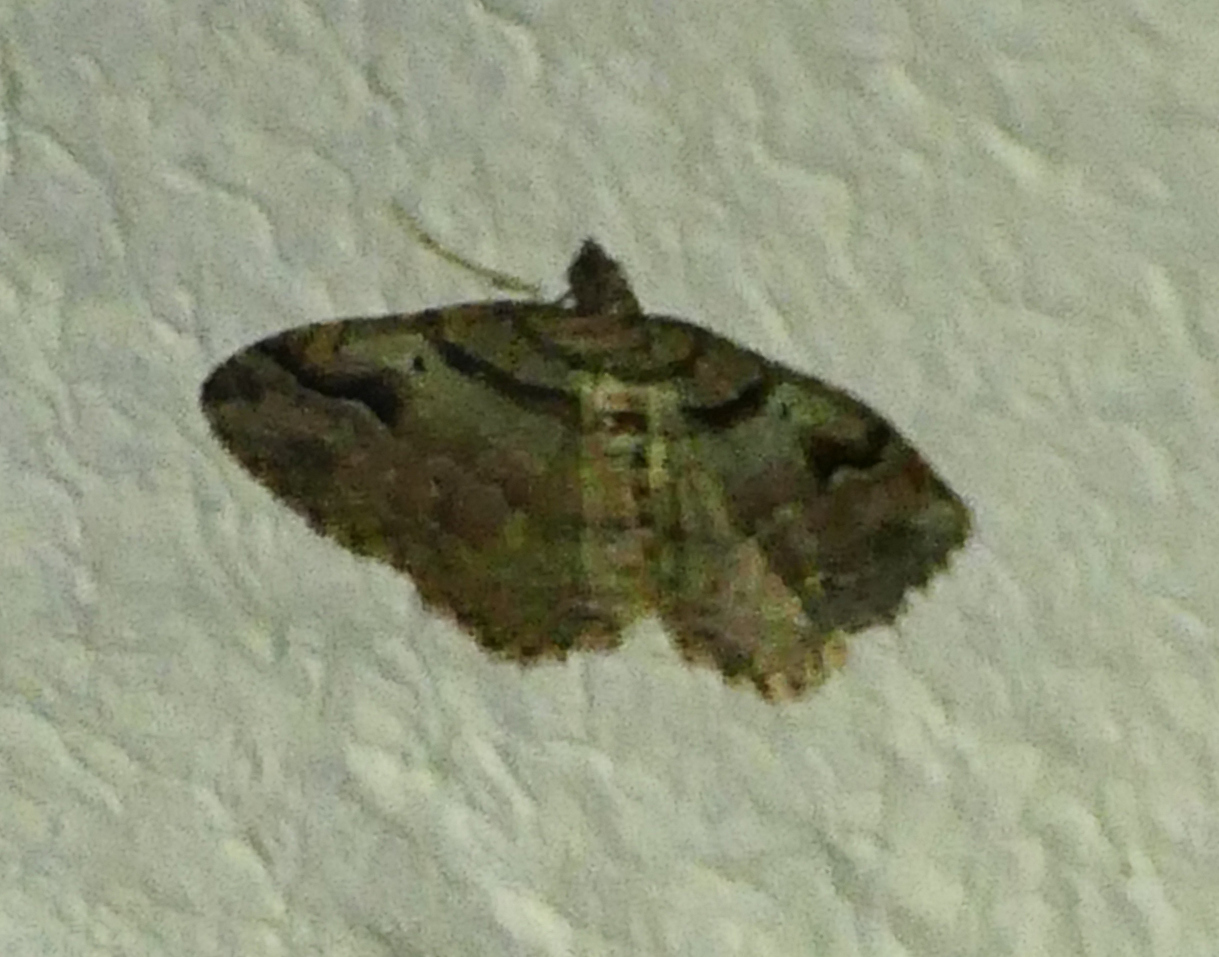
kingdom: Animalia
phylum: Arthropoda
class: Insecta
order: Lepidoptera
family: Geometridae
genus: Costaconvexa
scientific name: Costaconvexa centrostrigaria
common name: Bent-line carpet
